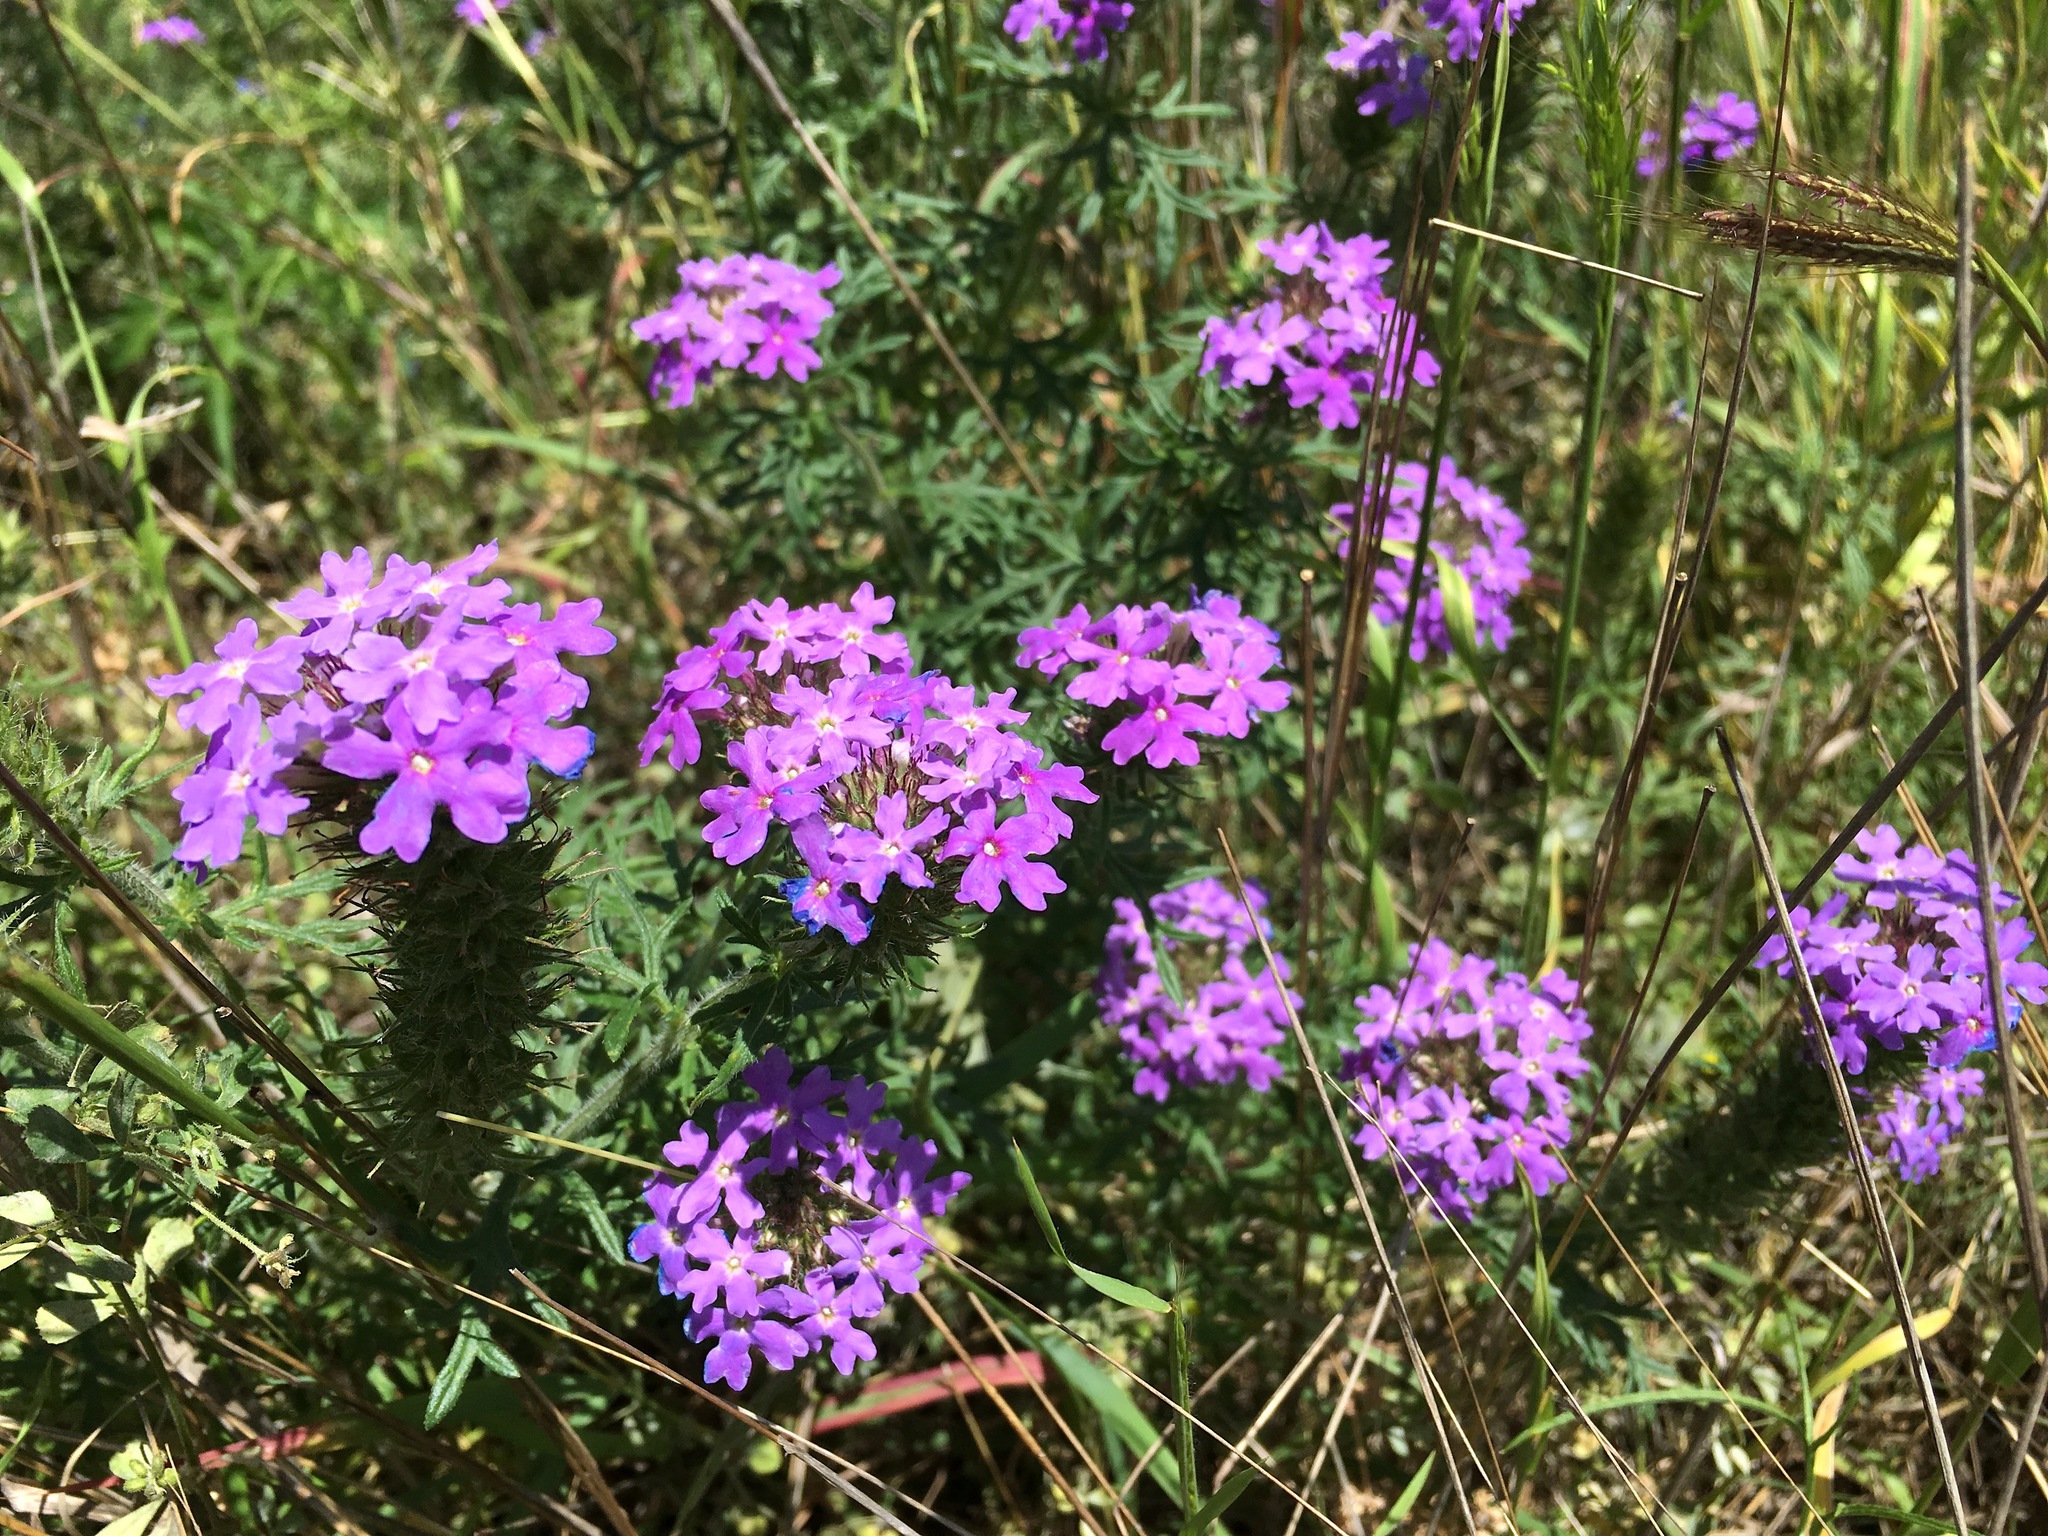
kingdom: Plantae
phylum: Tracheophyta
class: Magnoliopsida
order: Lamiales
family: Verbenaceae
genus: Verbena
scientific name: Verbena bipinnatifida
